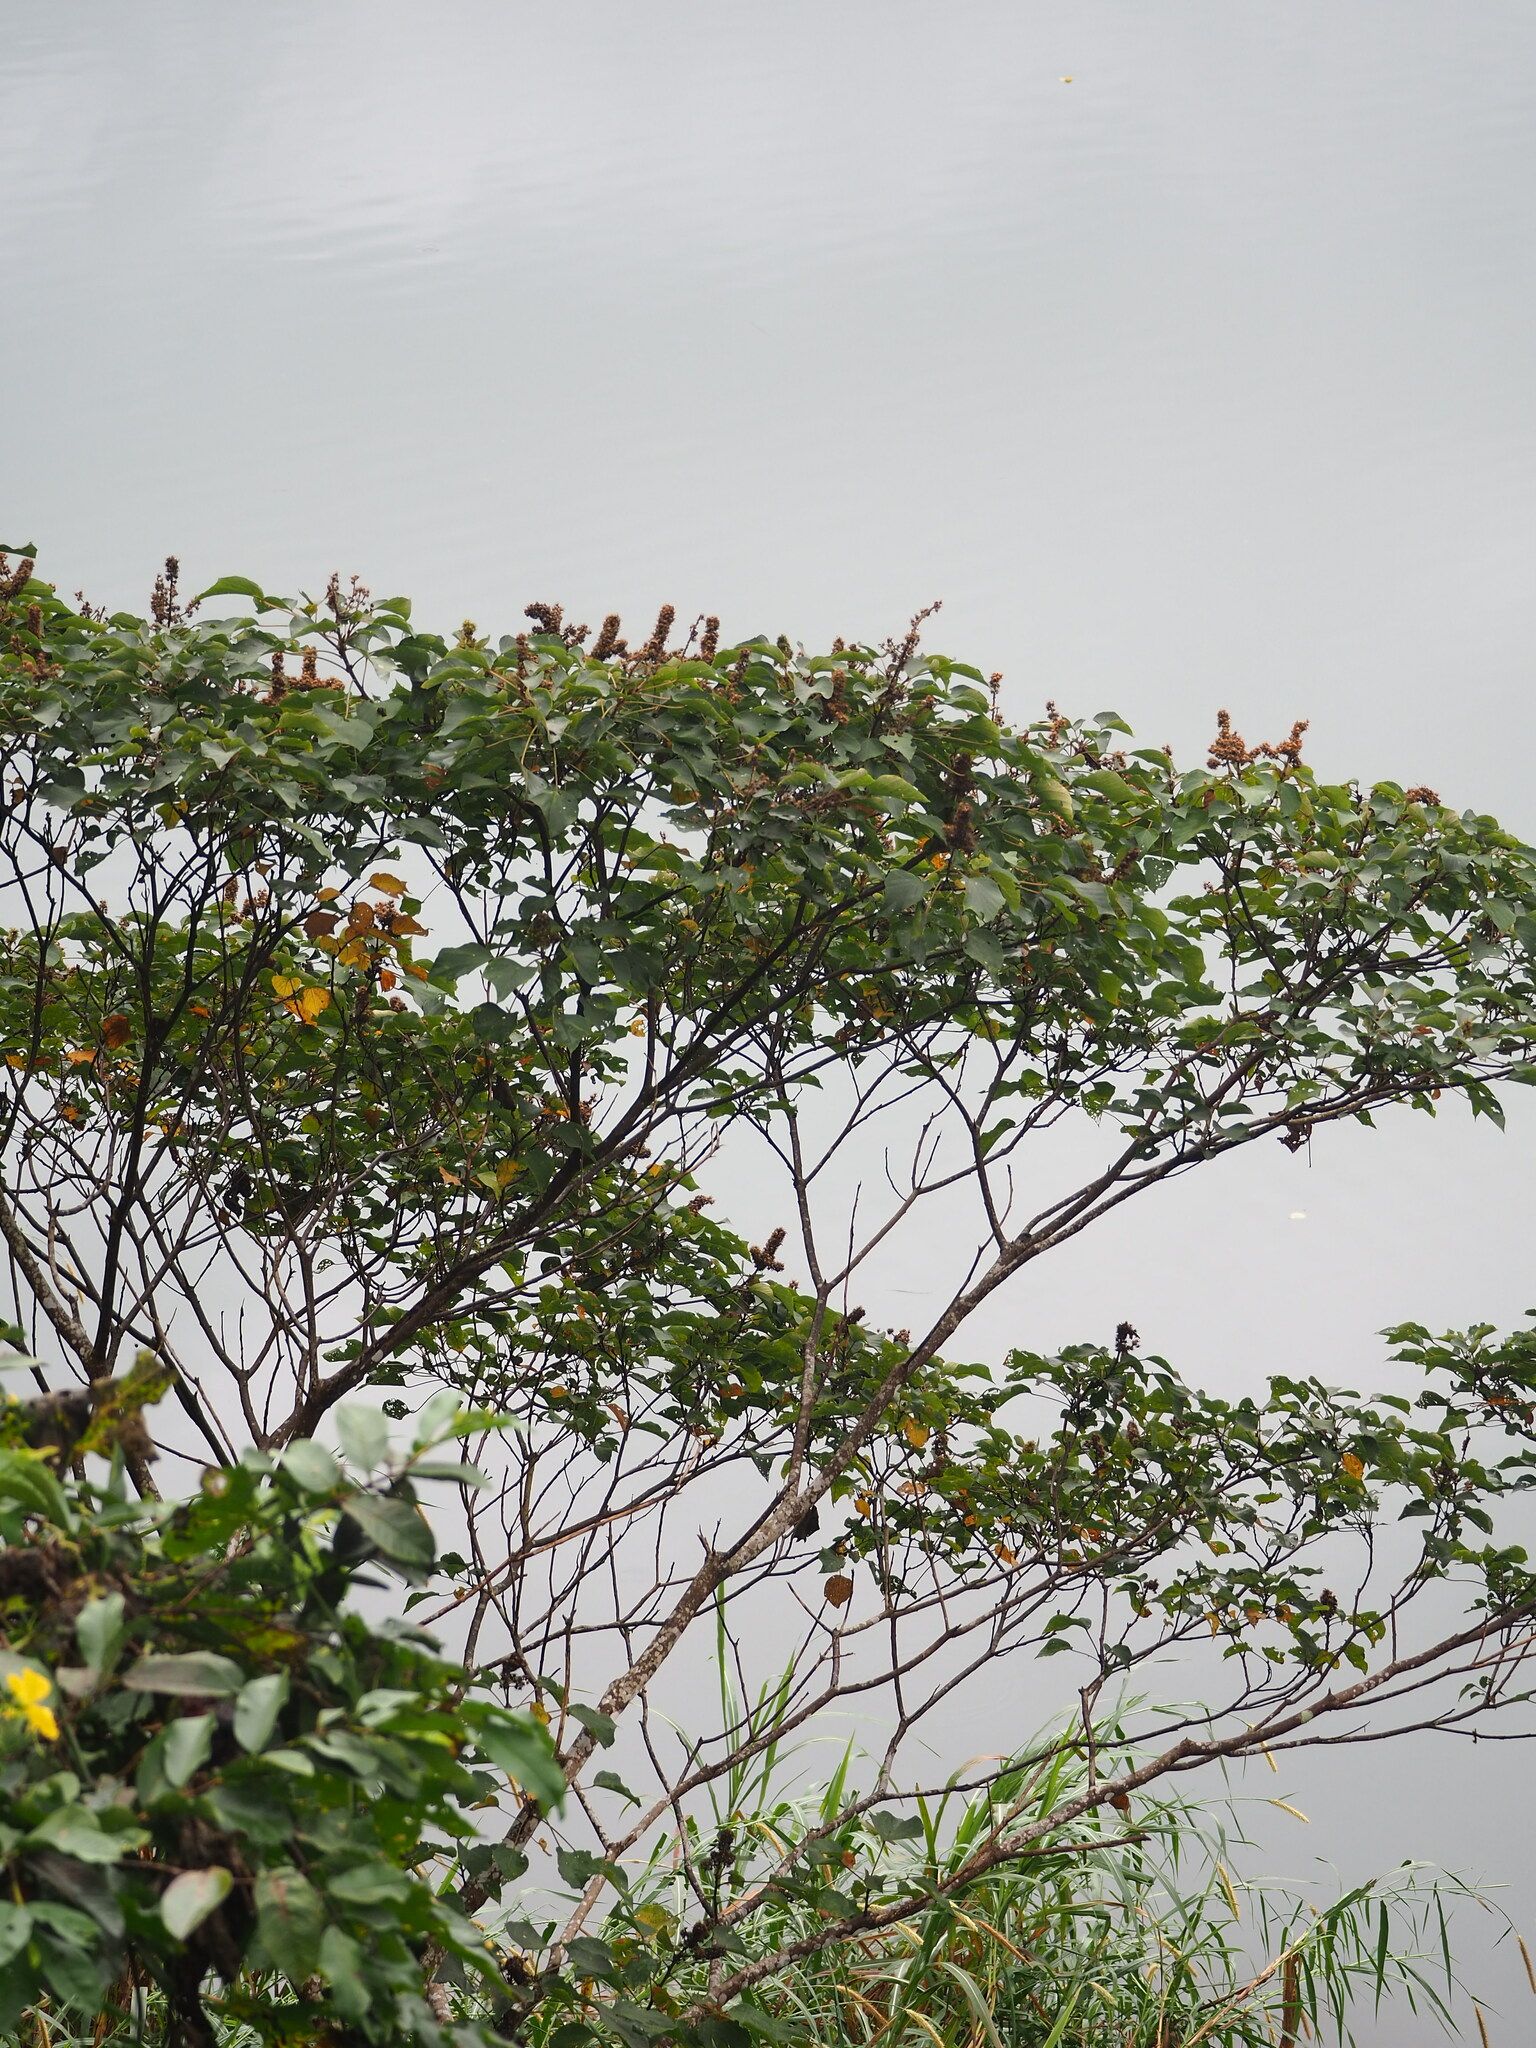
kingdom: Plantae
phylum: Tracheophyta
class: Magnoliopsida
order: Malpighiales
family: Euphorbiaceae
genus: Mallotus
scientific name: Mallotus japonicus
